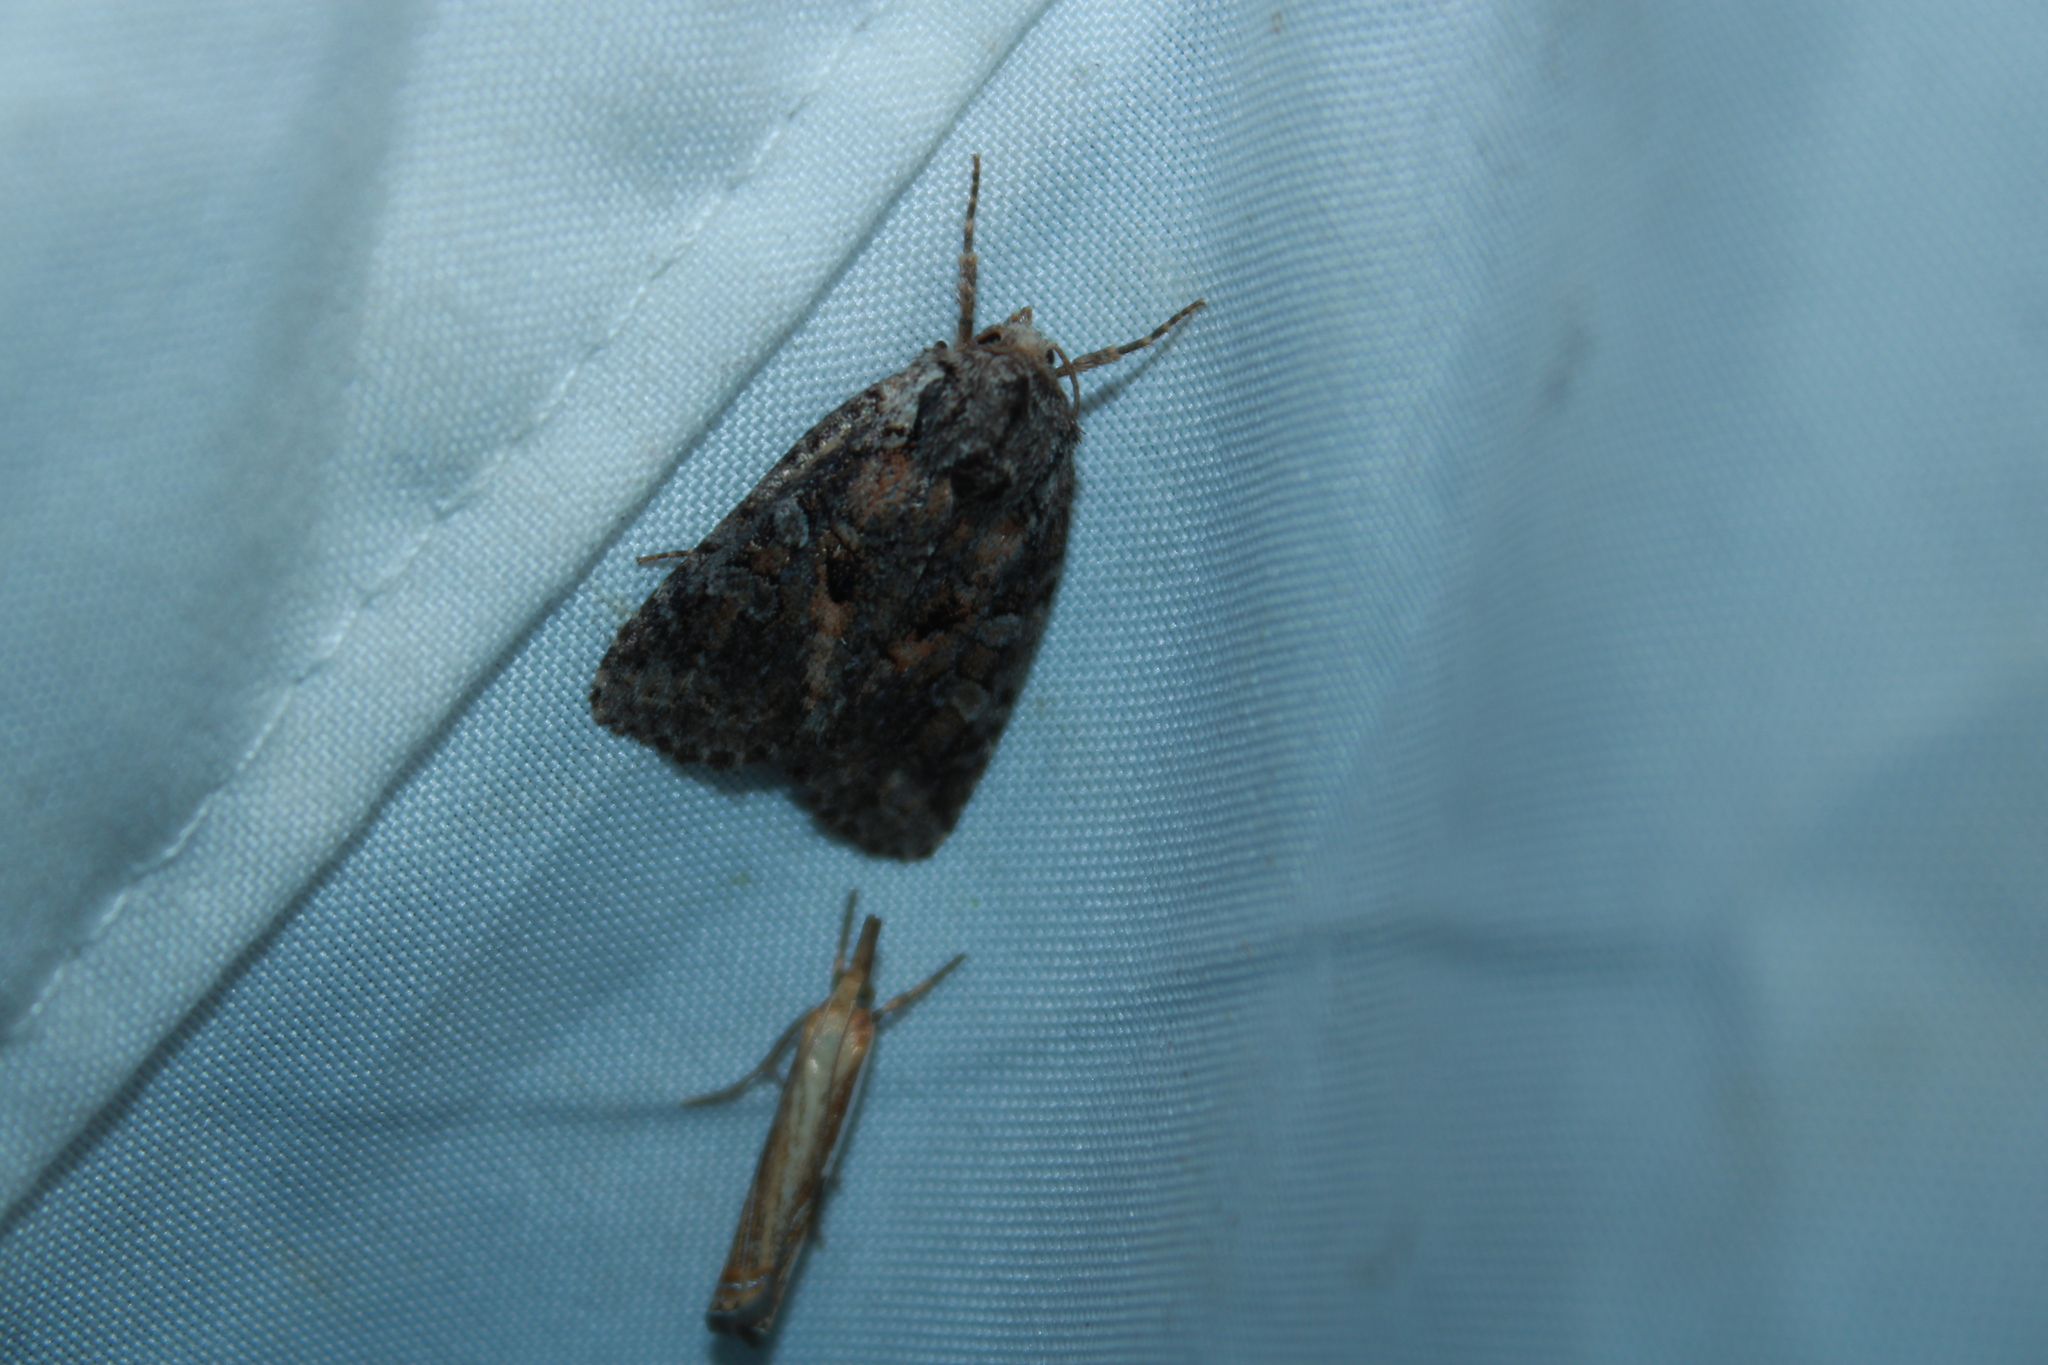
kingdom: Animalia
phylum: Arthropoda
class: Insecta
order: Lepidoptera
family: Noctuidae
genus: Orthodes
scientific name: Orthodes detracta
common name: Disparaged arches moth
